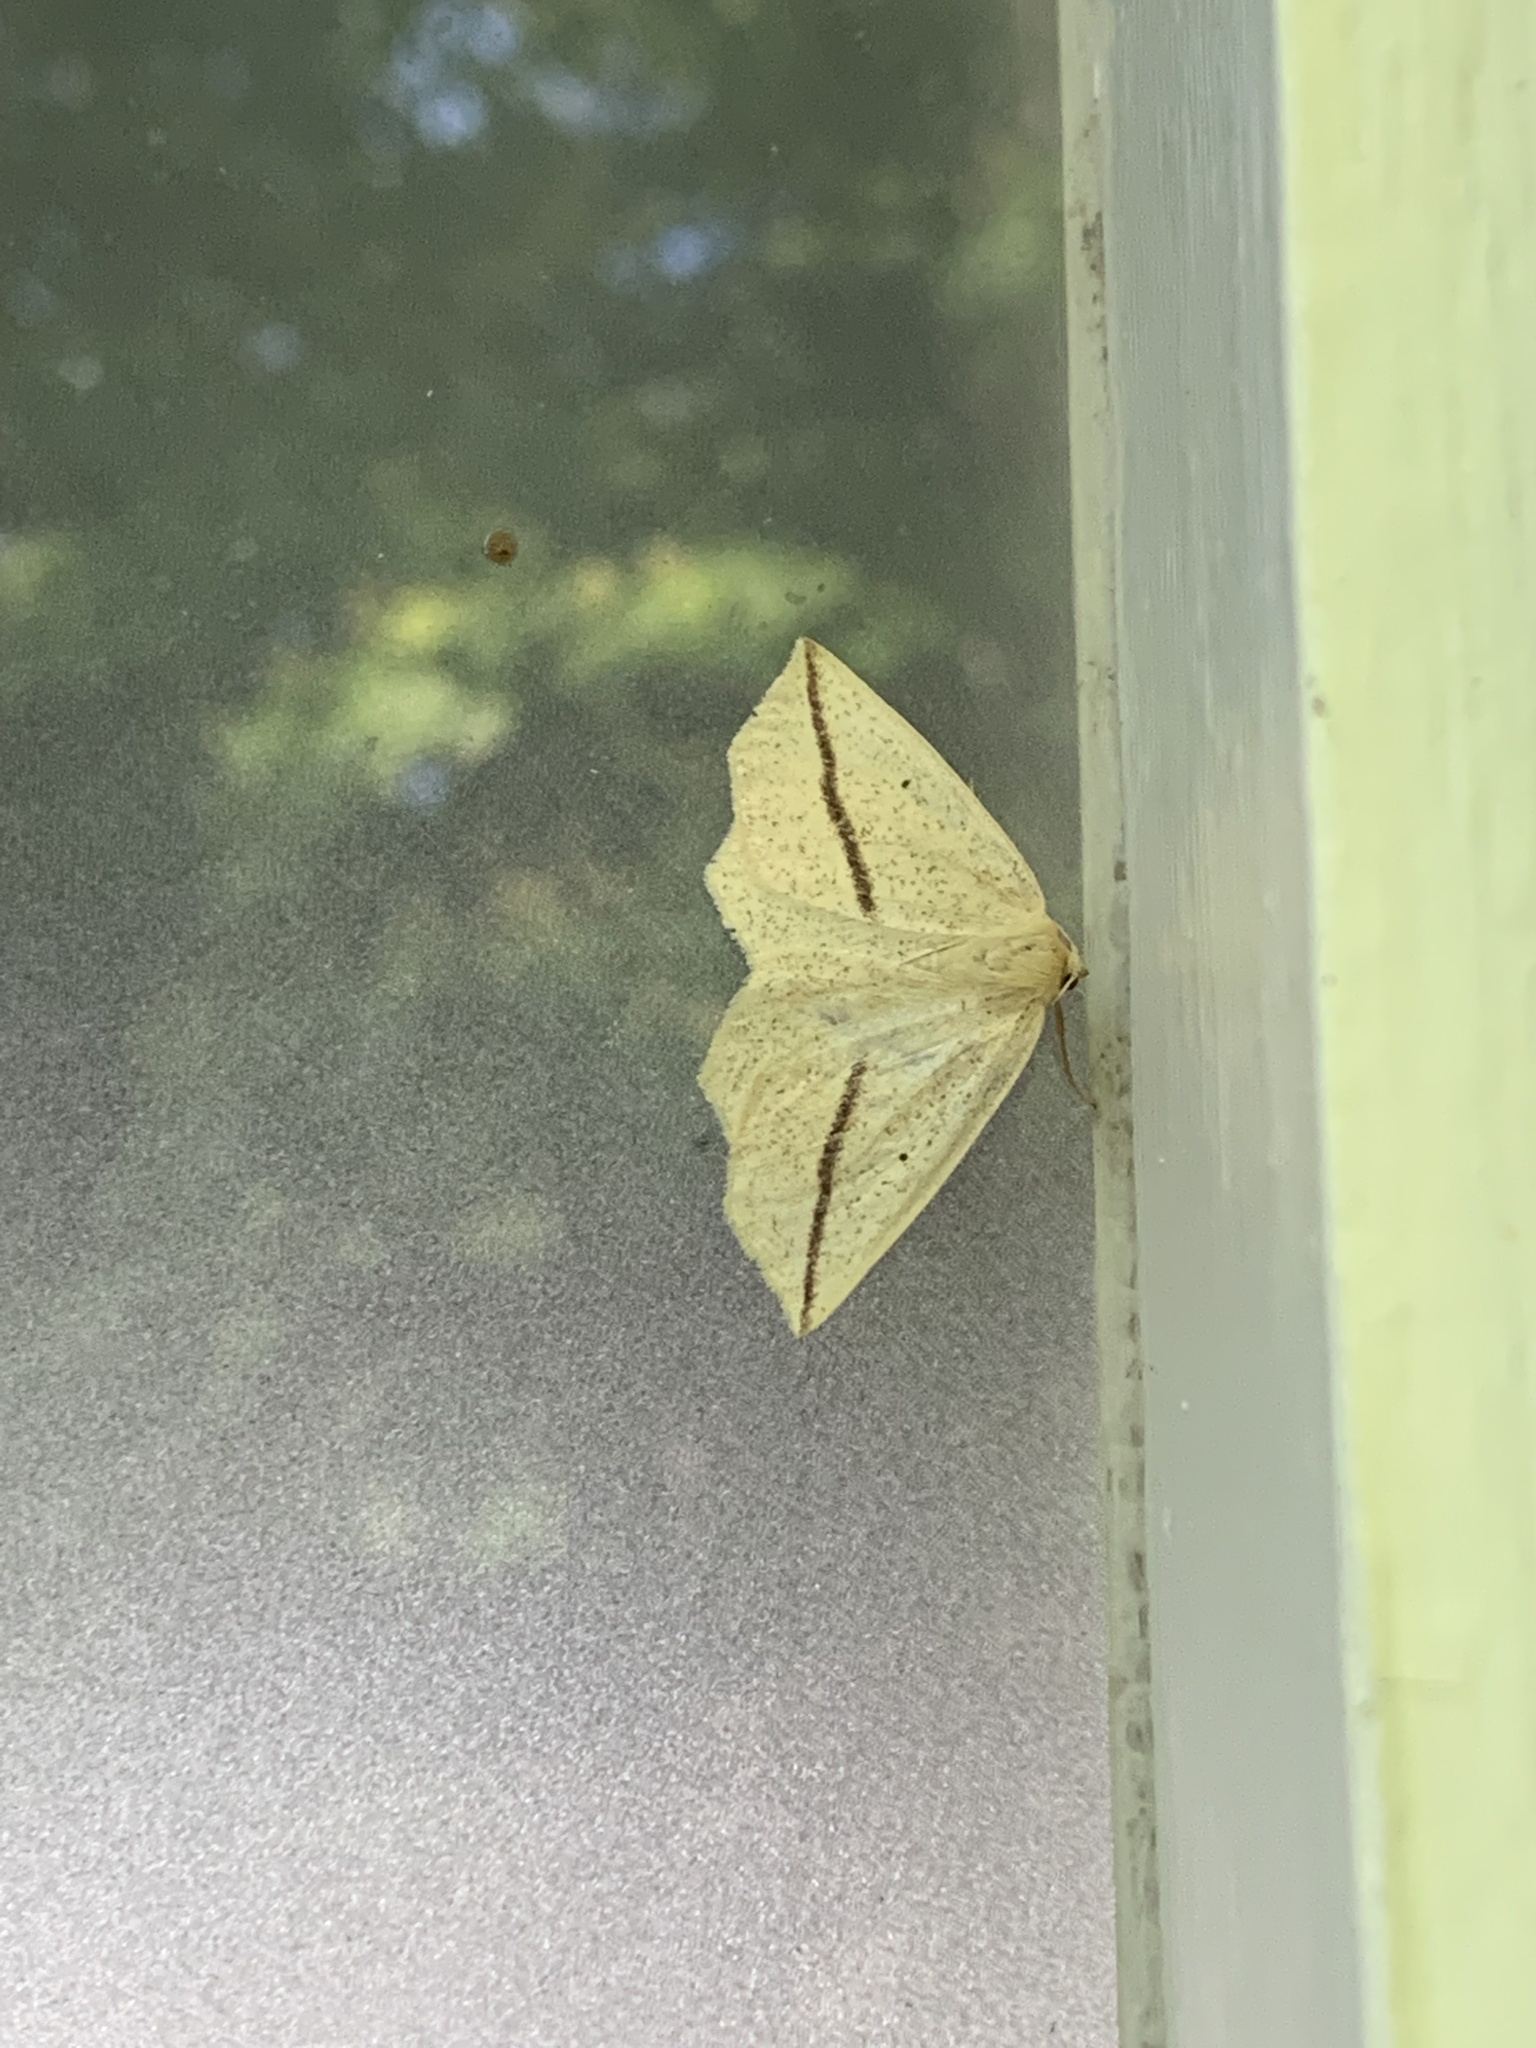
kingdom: Animalia
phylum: Arthropoda
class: Insecta
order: Lepidoptera
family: Geometridae
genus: Tetracis
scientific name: Tetracis crocallata
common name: Yellow slant-line
